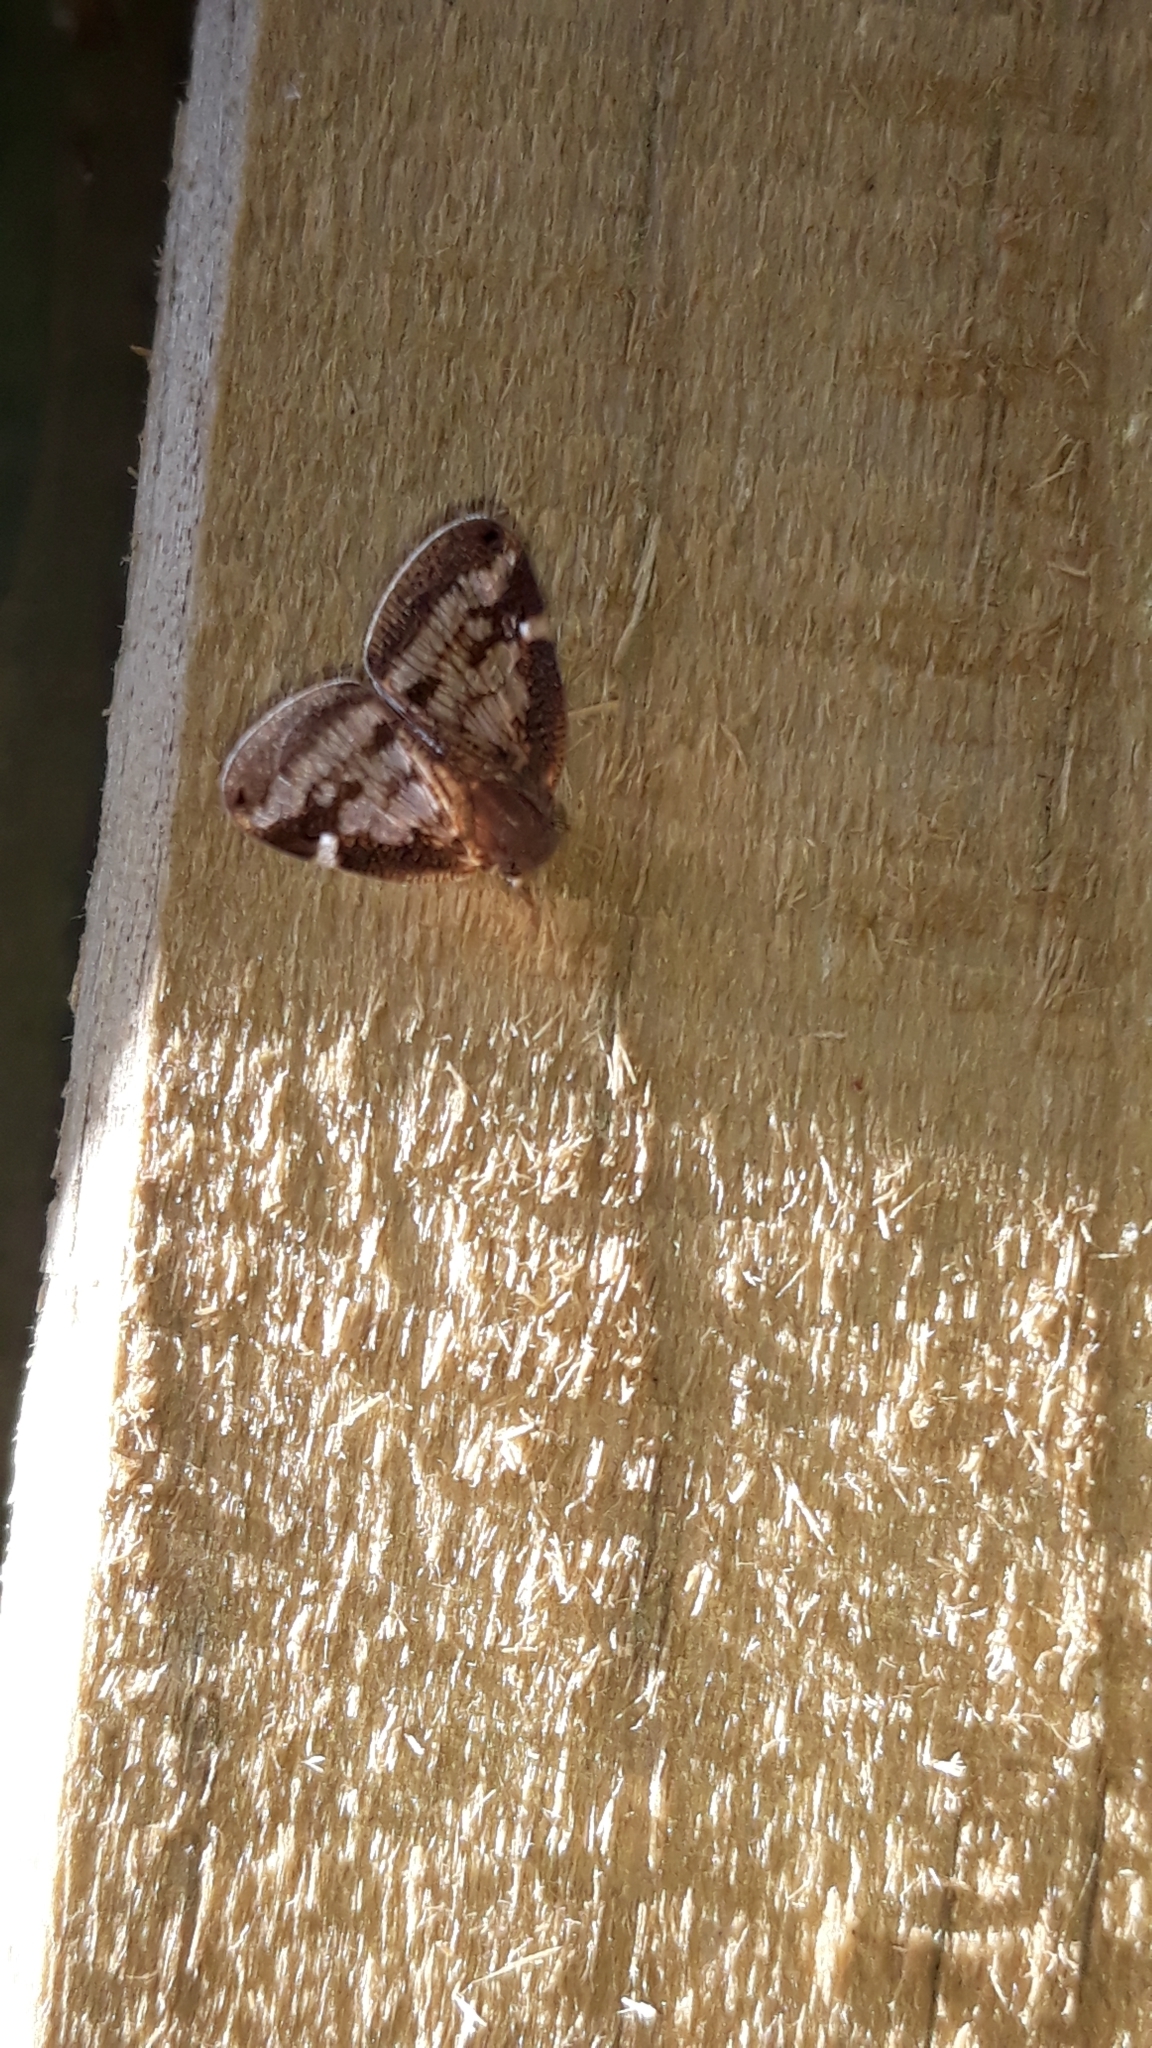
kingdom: Animalia
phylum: Arthropoda
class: Insecta
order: Hemiptera
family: Ricaniidae
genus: Scolypopa
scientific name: Scolypopa australis
